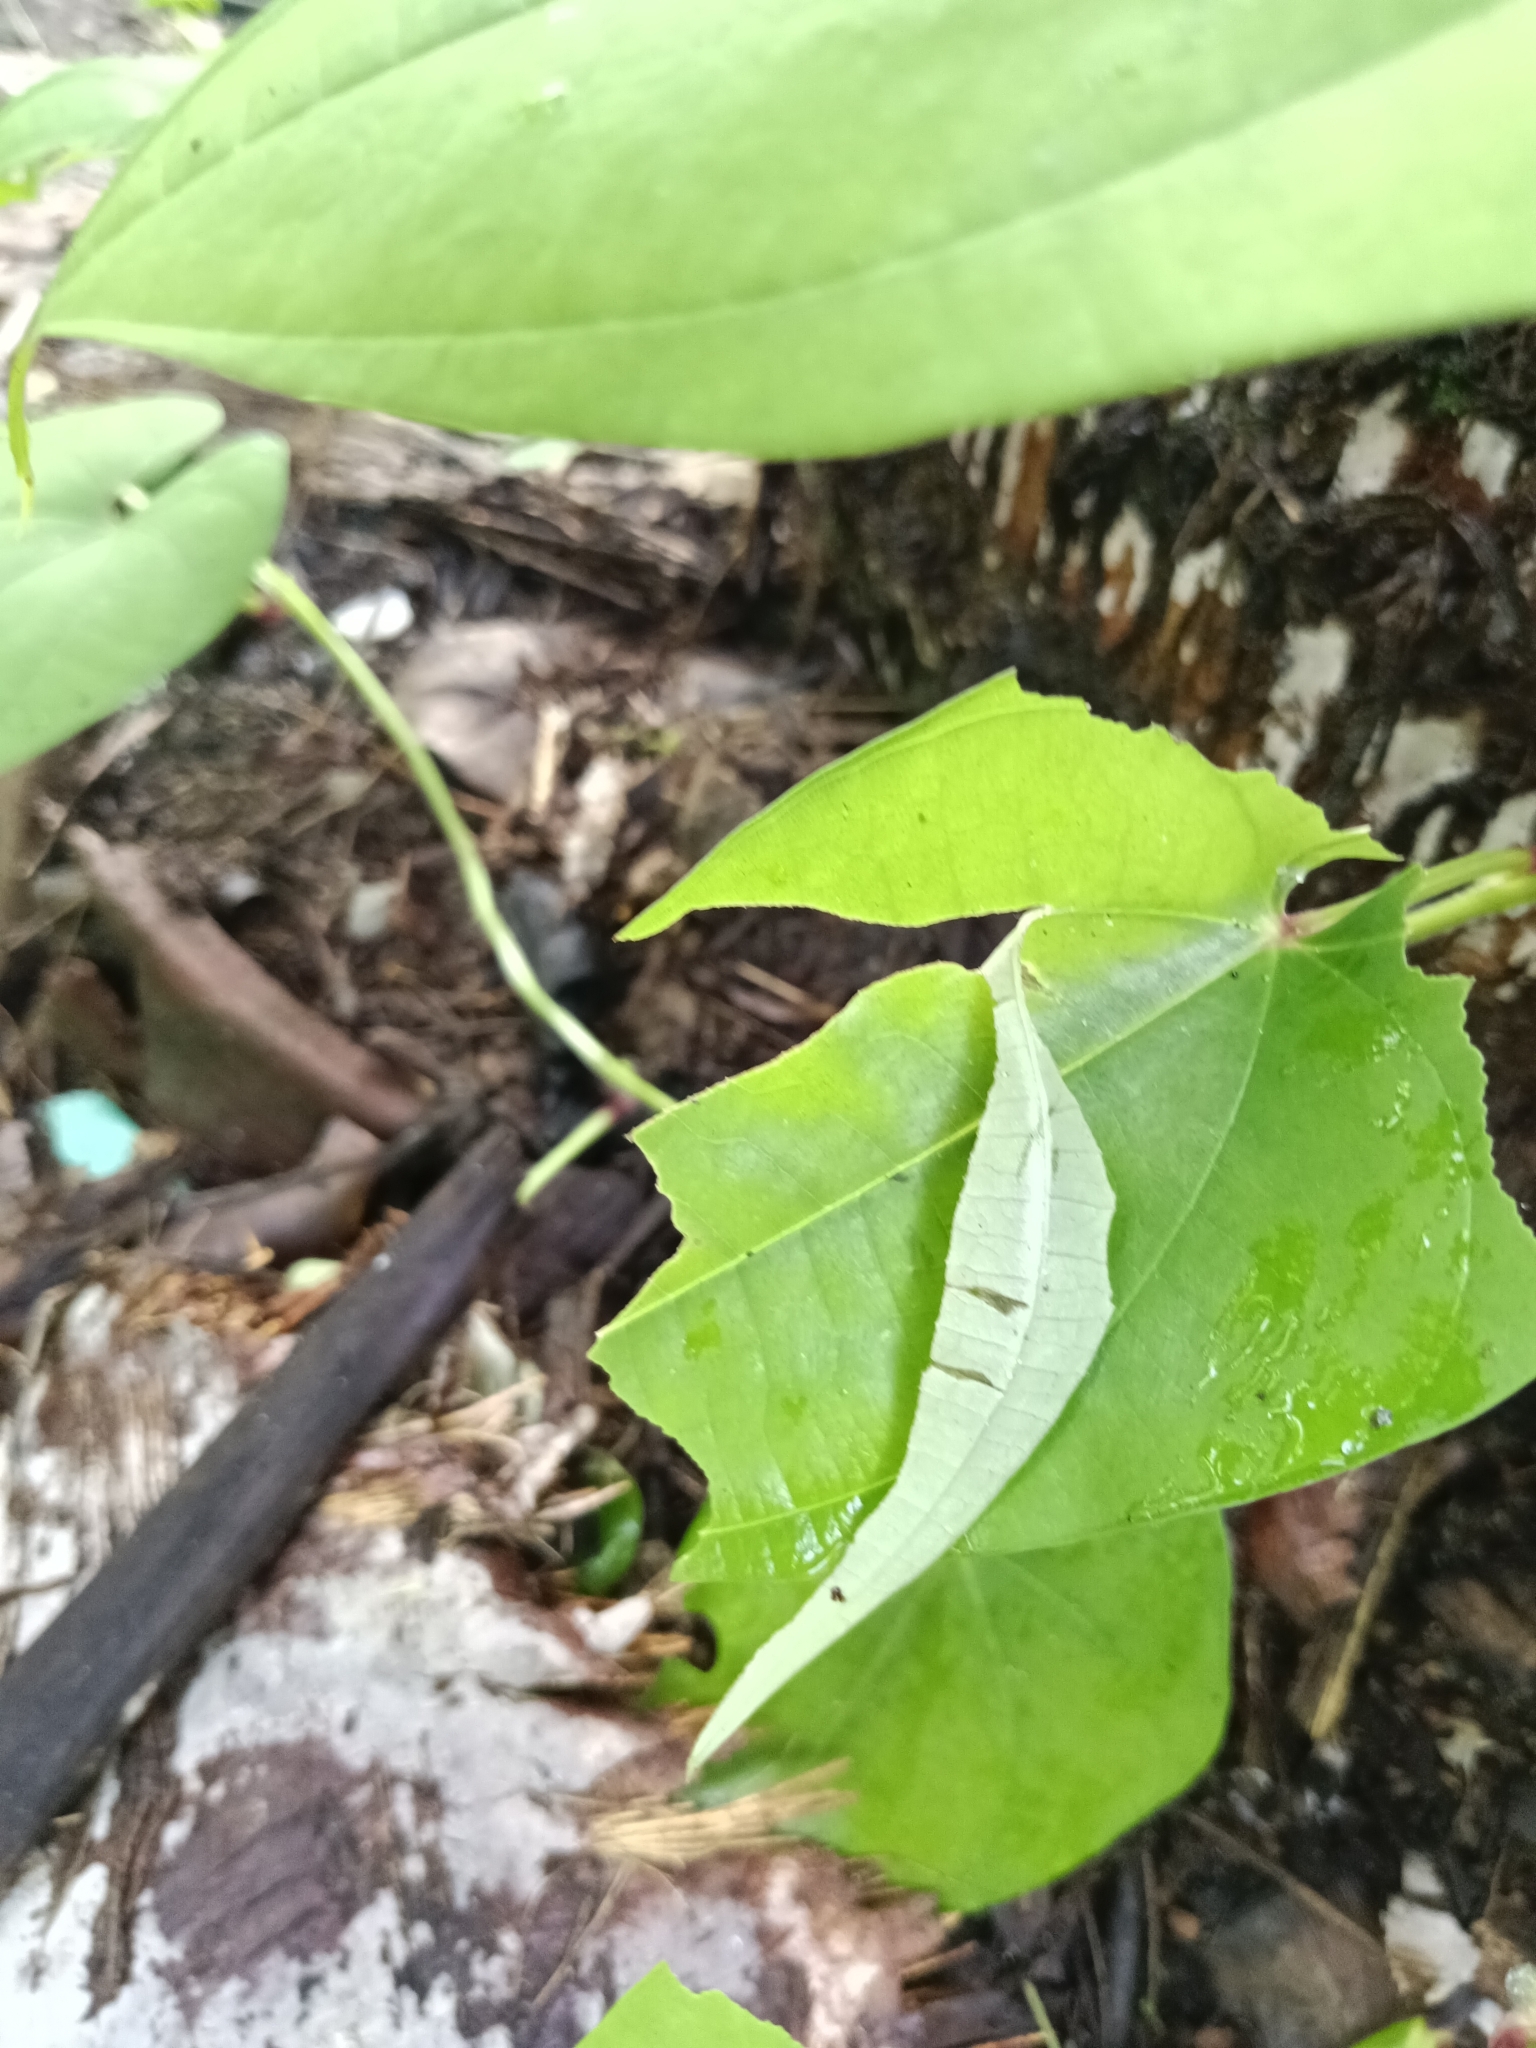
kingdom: Animalia
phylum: Arthropoda
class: Insecta
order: Lepidoptera
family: Hesperiidae
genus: Tagiades
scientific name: Tagiades gana
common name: Suffused snow flat
